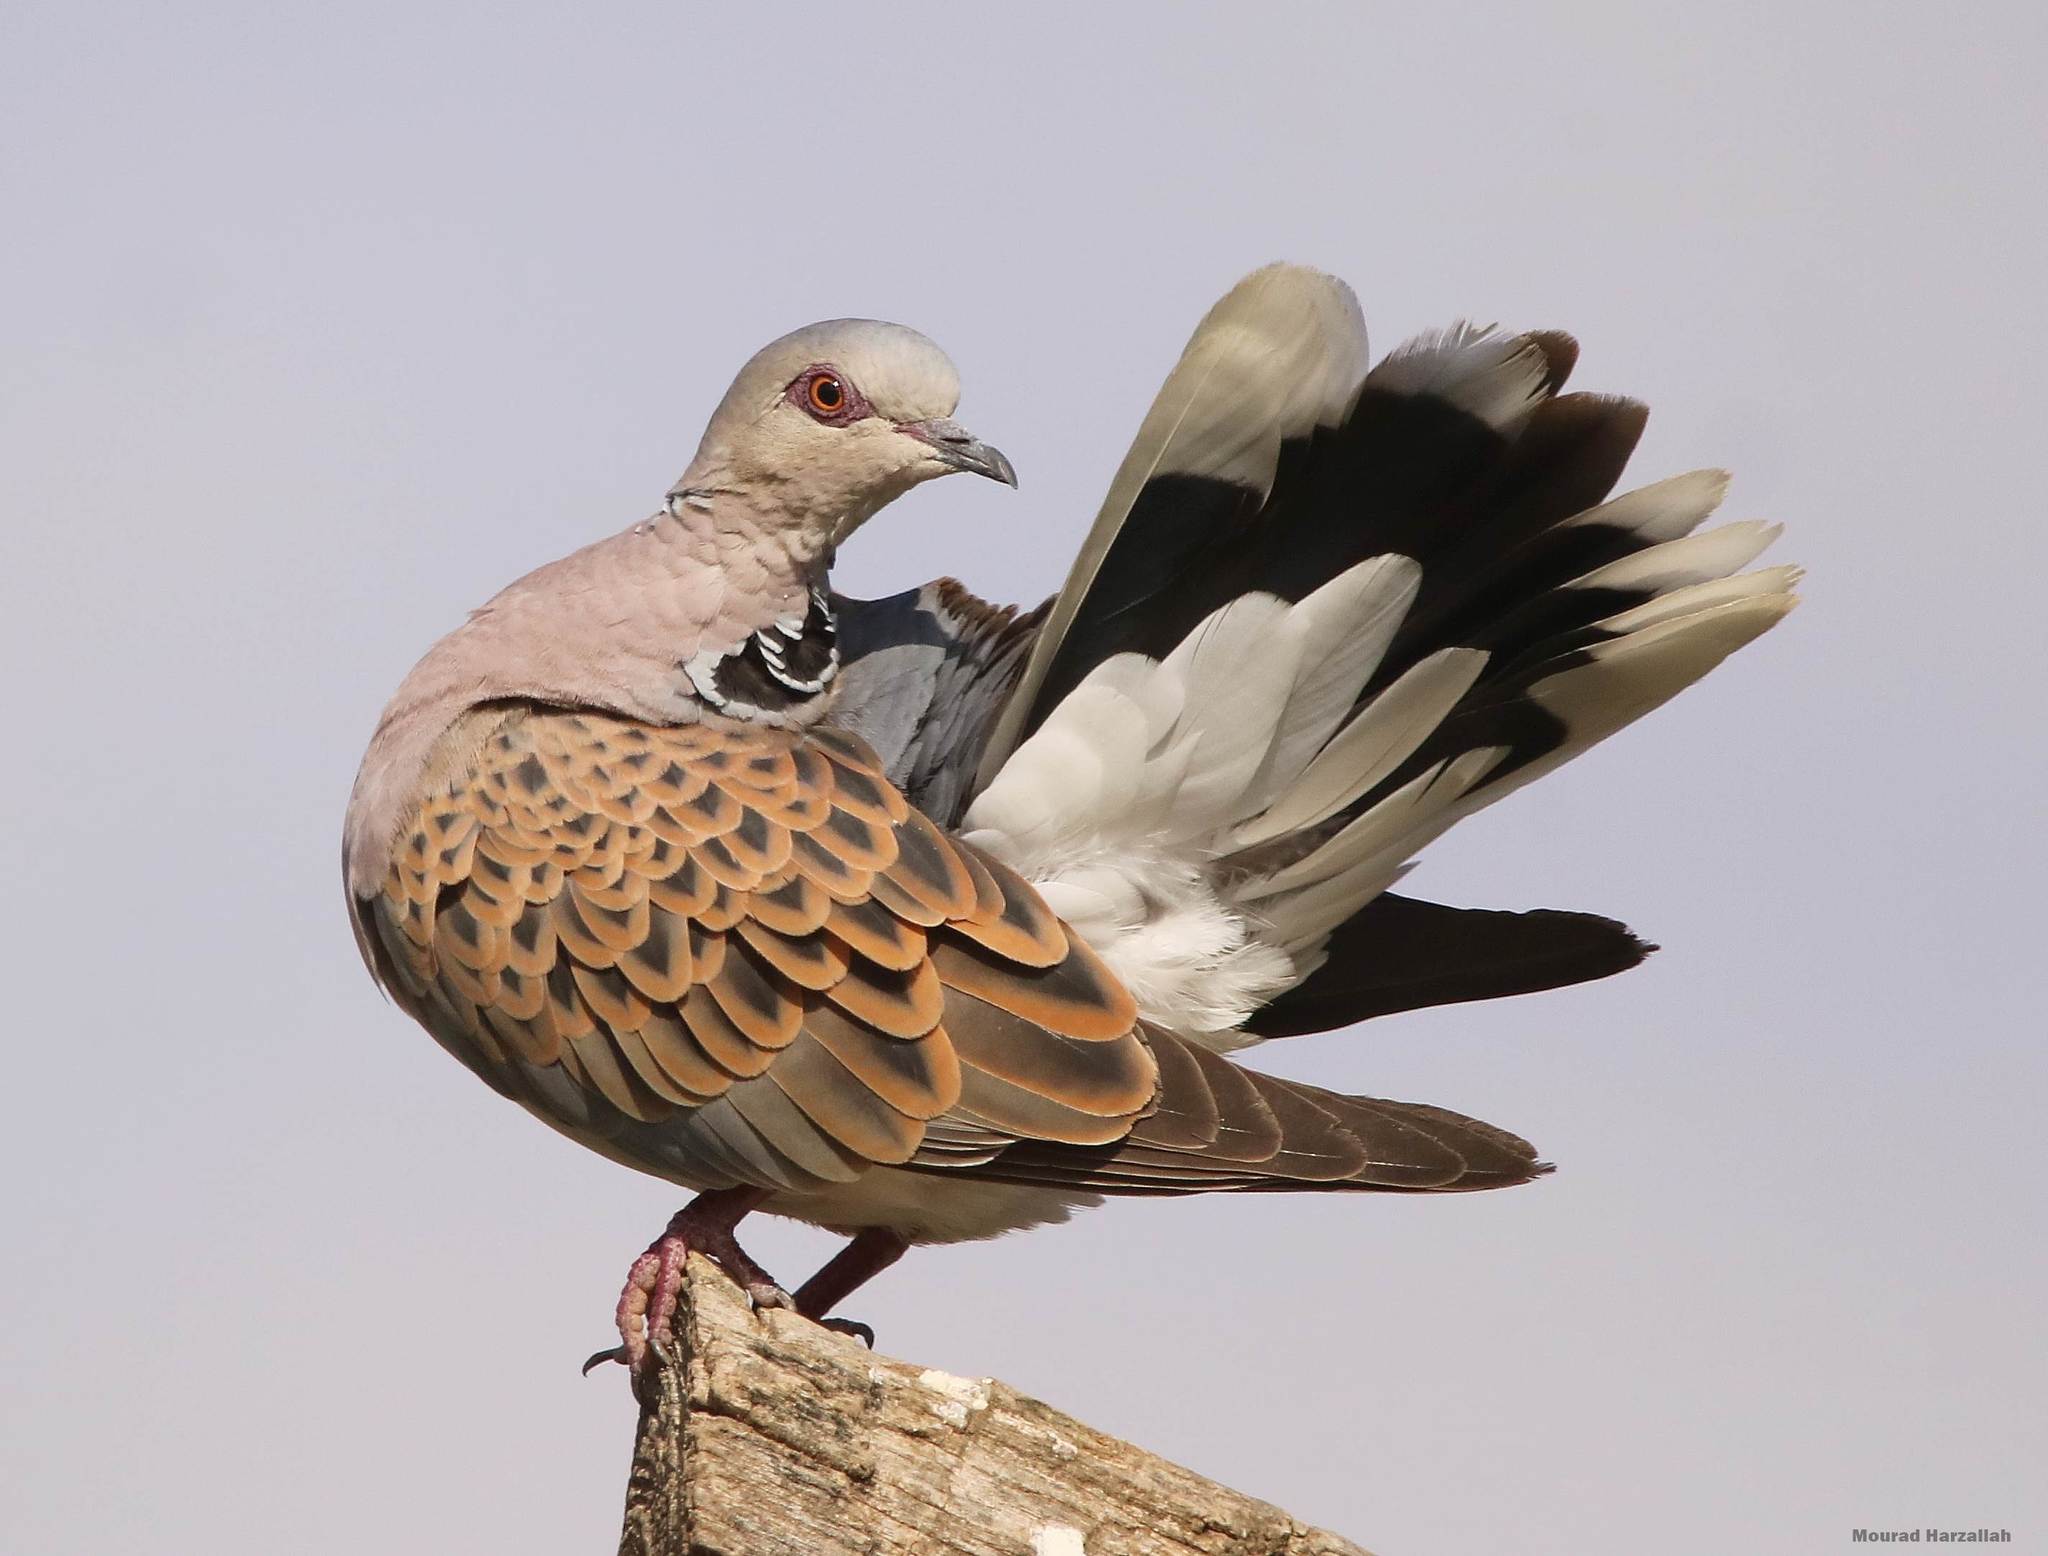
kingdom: Animalia
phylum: Chordata
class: Aves
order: Columbiformes
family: Columbidae
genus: Streptopelia
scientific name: Streptopelia turtur
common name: European turtle dove
